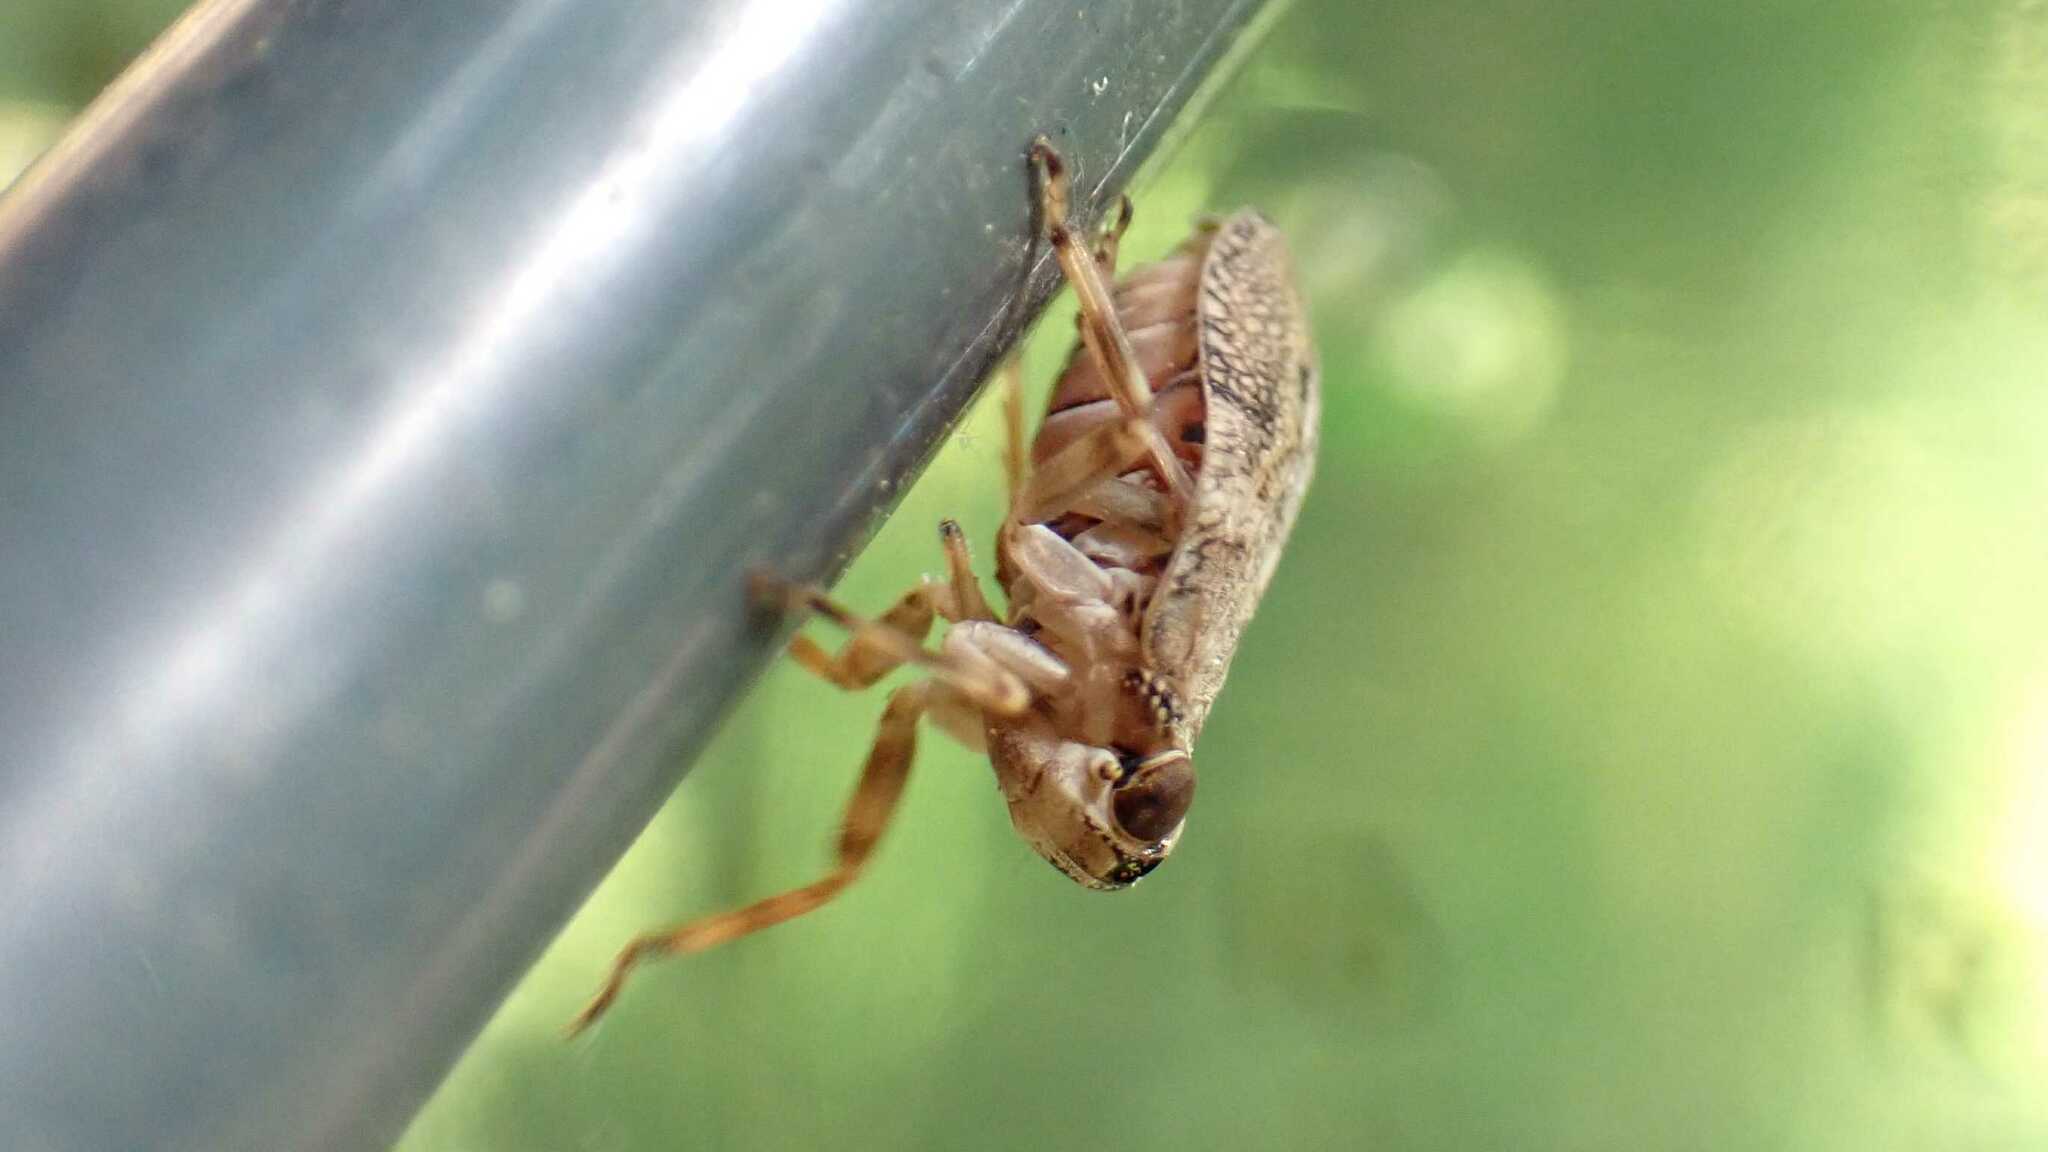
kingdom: Animalia
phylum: Arthropoda
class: Insecta
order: Hemiptera
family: Issidae
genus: Issus
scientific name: Issus coleoptratus
